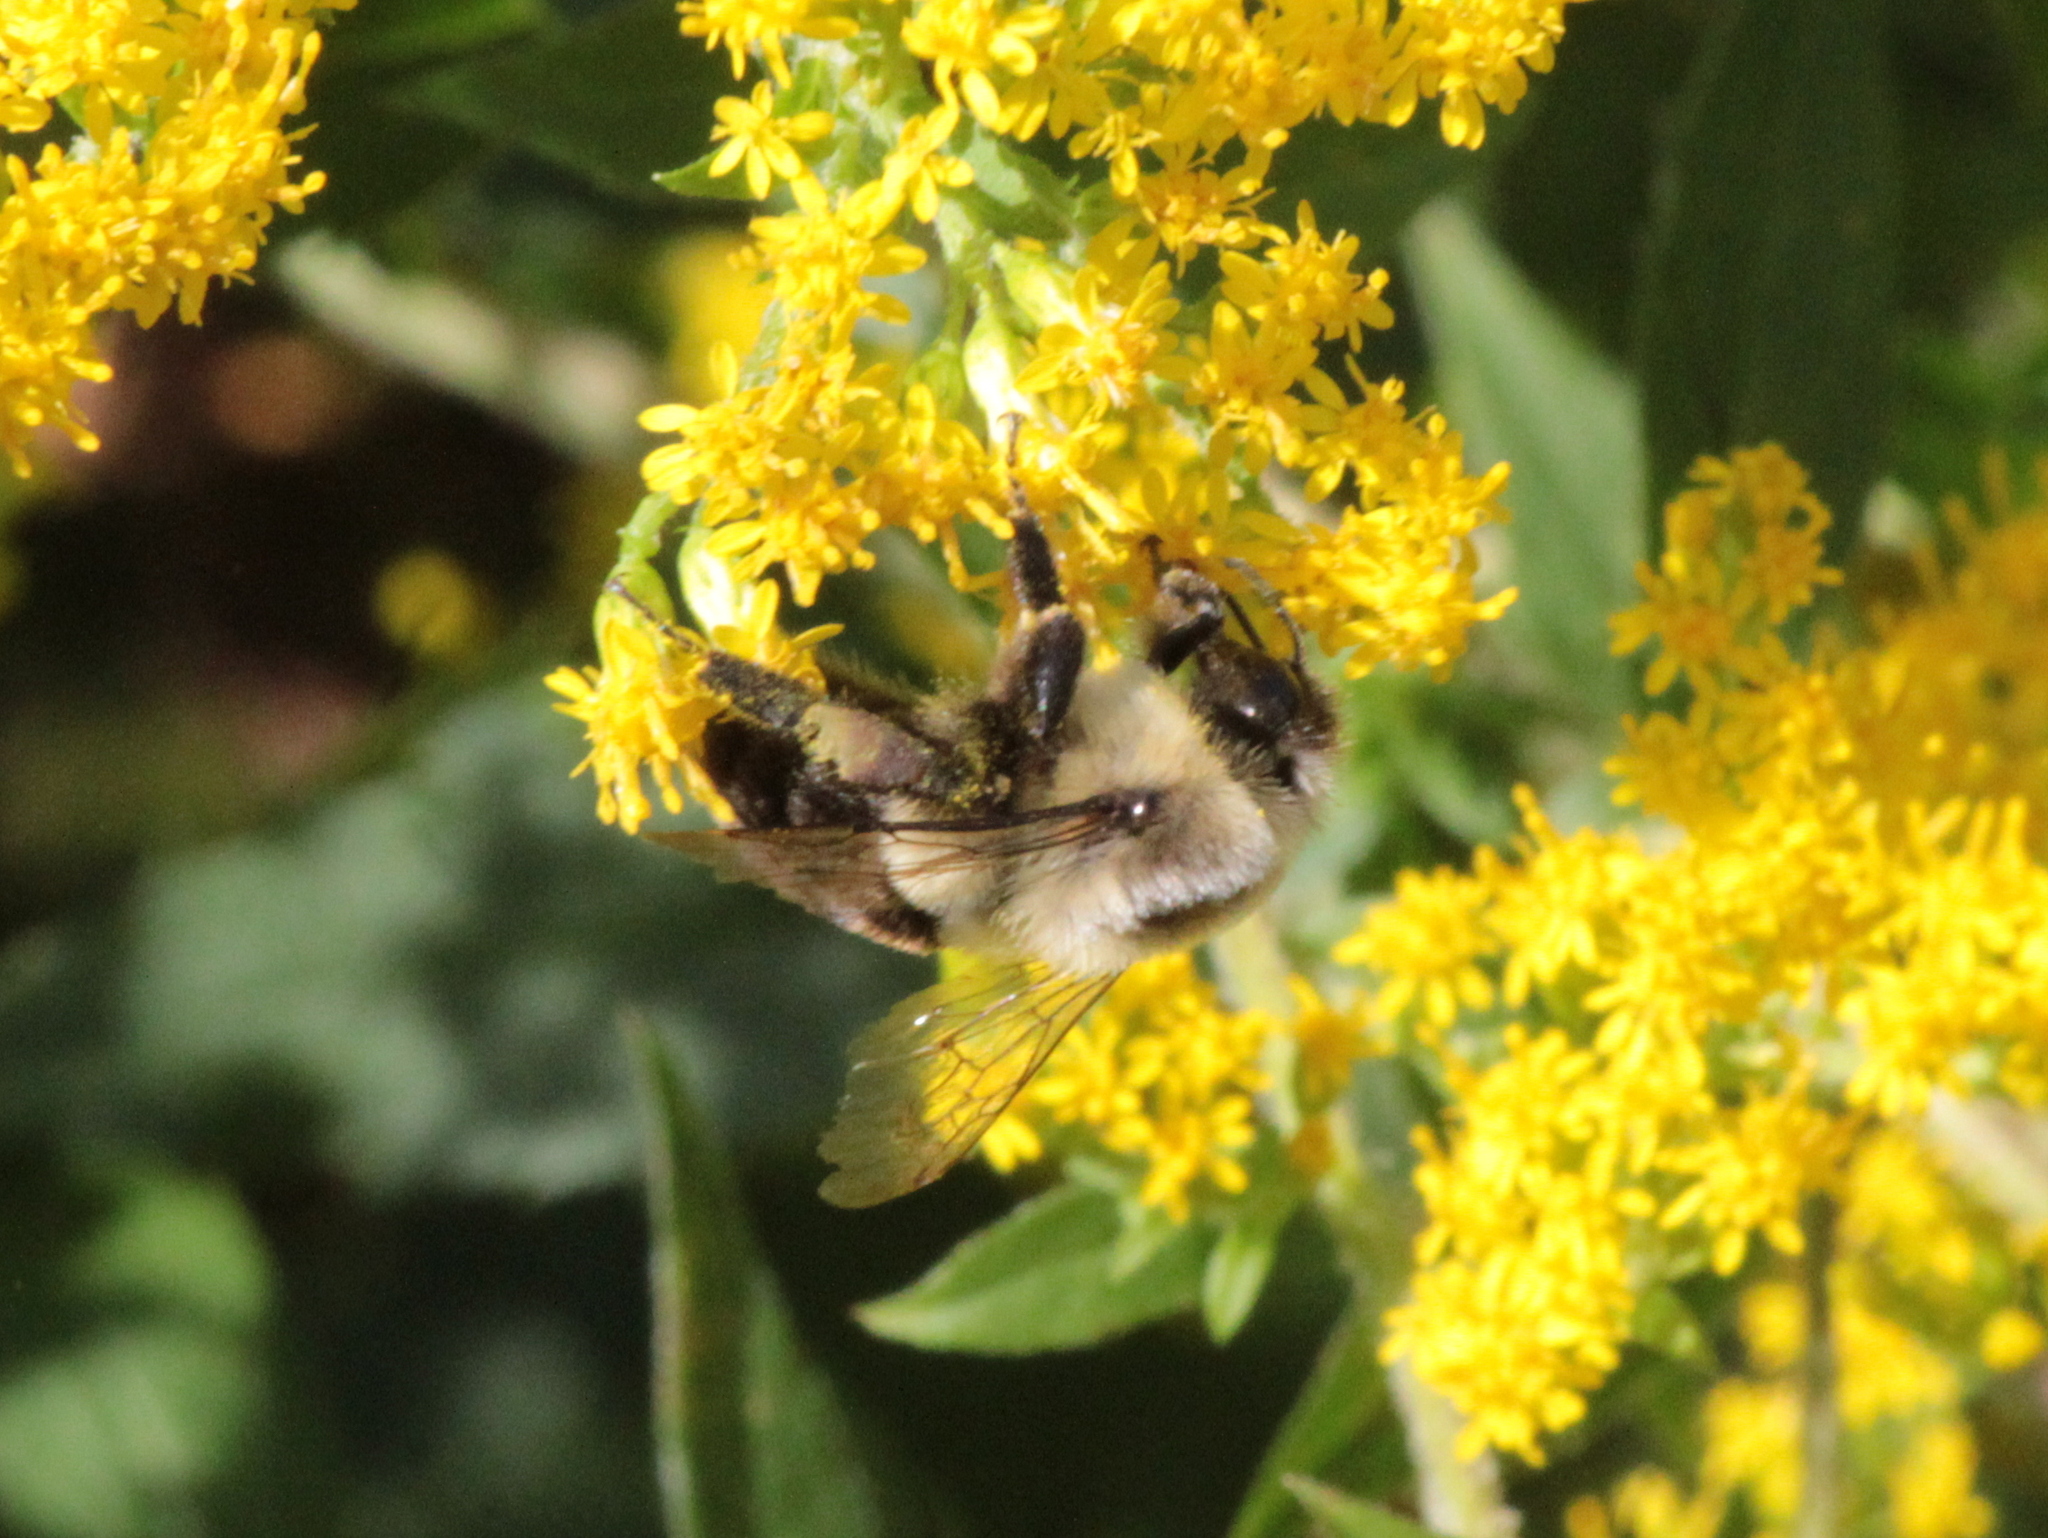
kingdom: Animalia
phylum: Arthropoda
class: Insecta
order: Hymenoptera
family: Apidae
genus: Bombus
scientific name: Bombus impatiens
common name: Common eastern bumble bee
